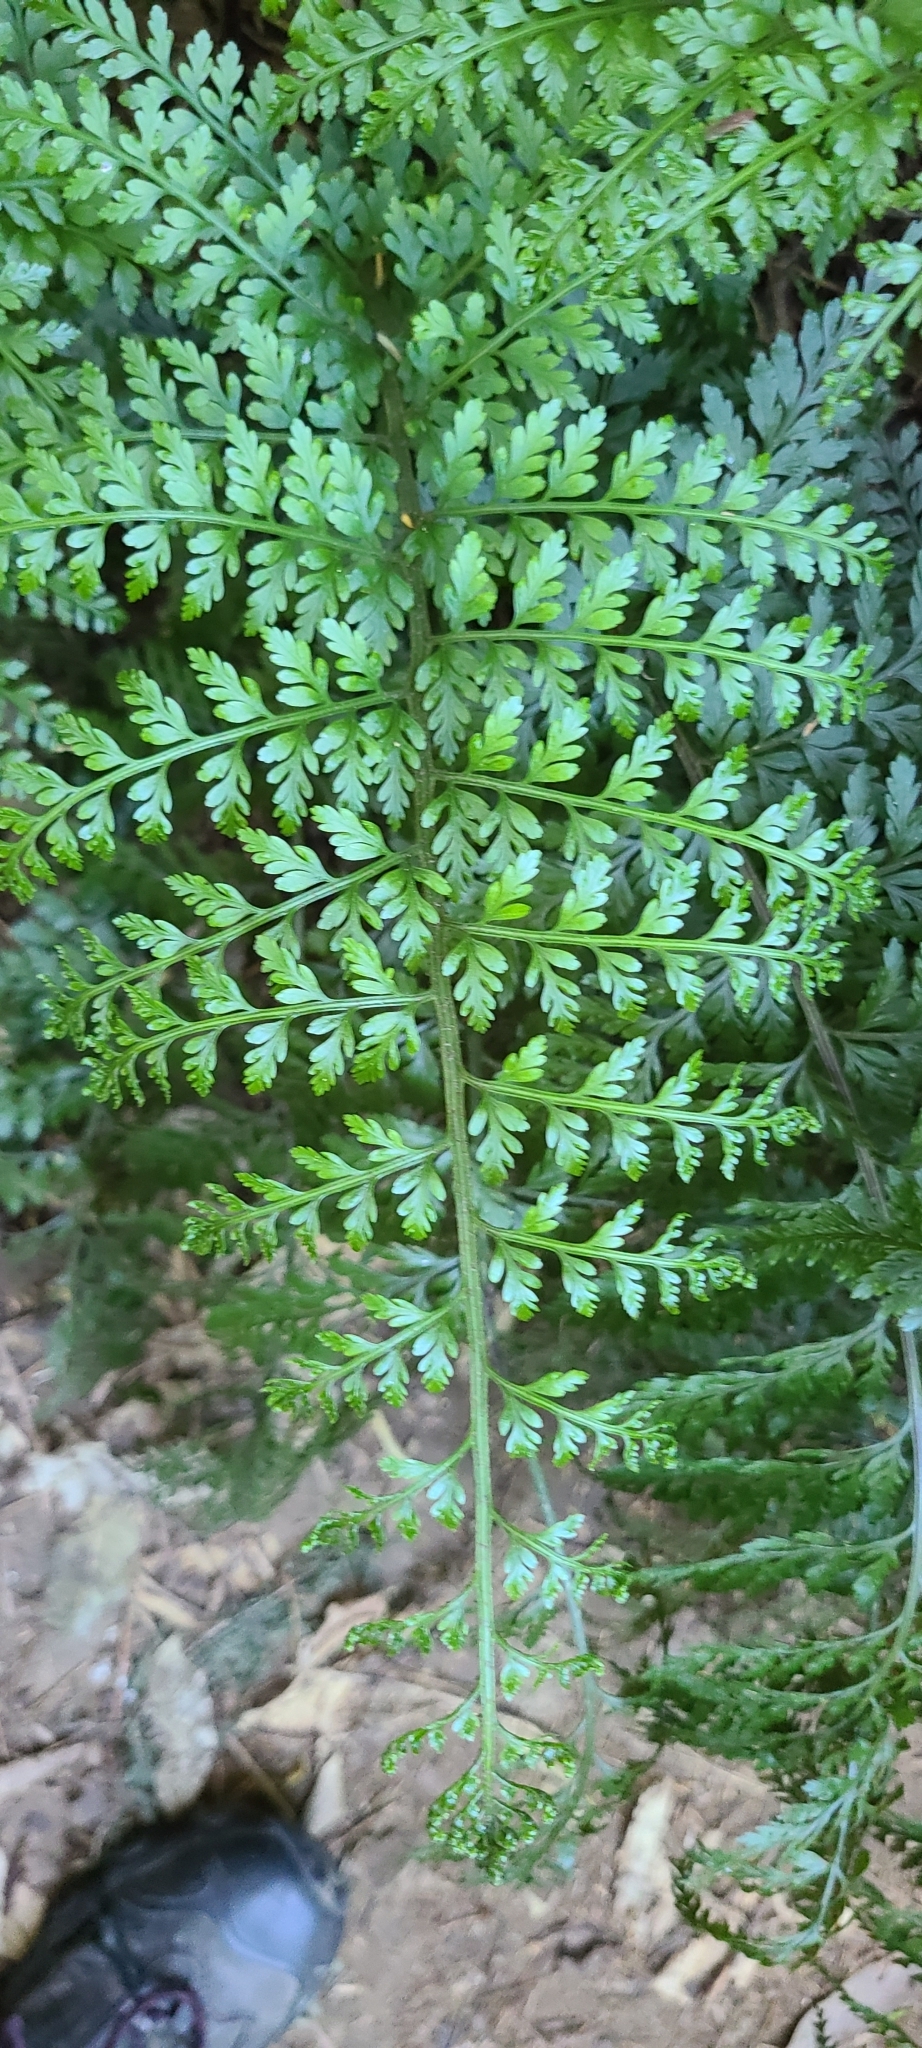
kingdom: Plantae
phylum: Tracheophyta
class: Polypodiopsida
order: Polypodiales
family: Aspleniaceae
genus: Asplenium
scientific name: Asplenium
